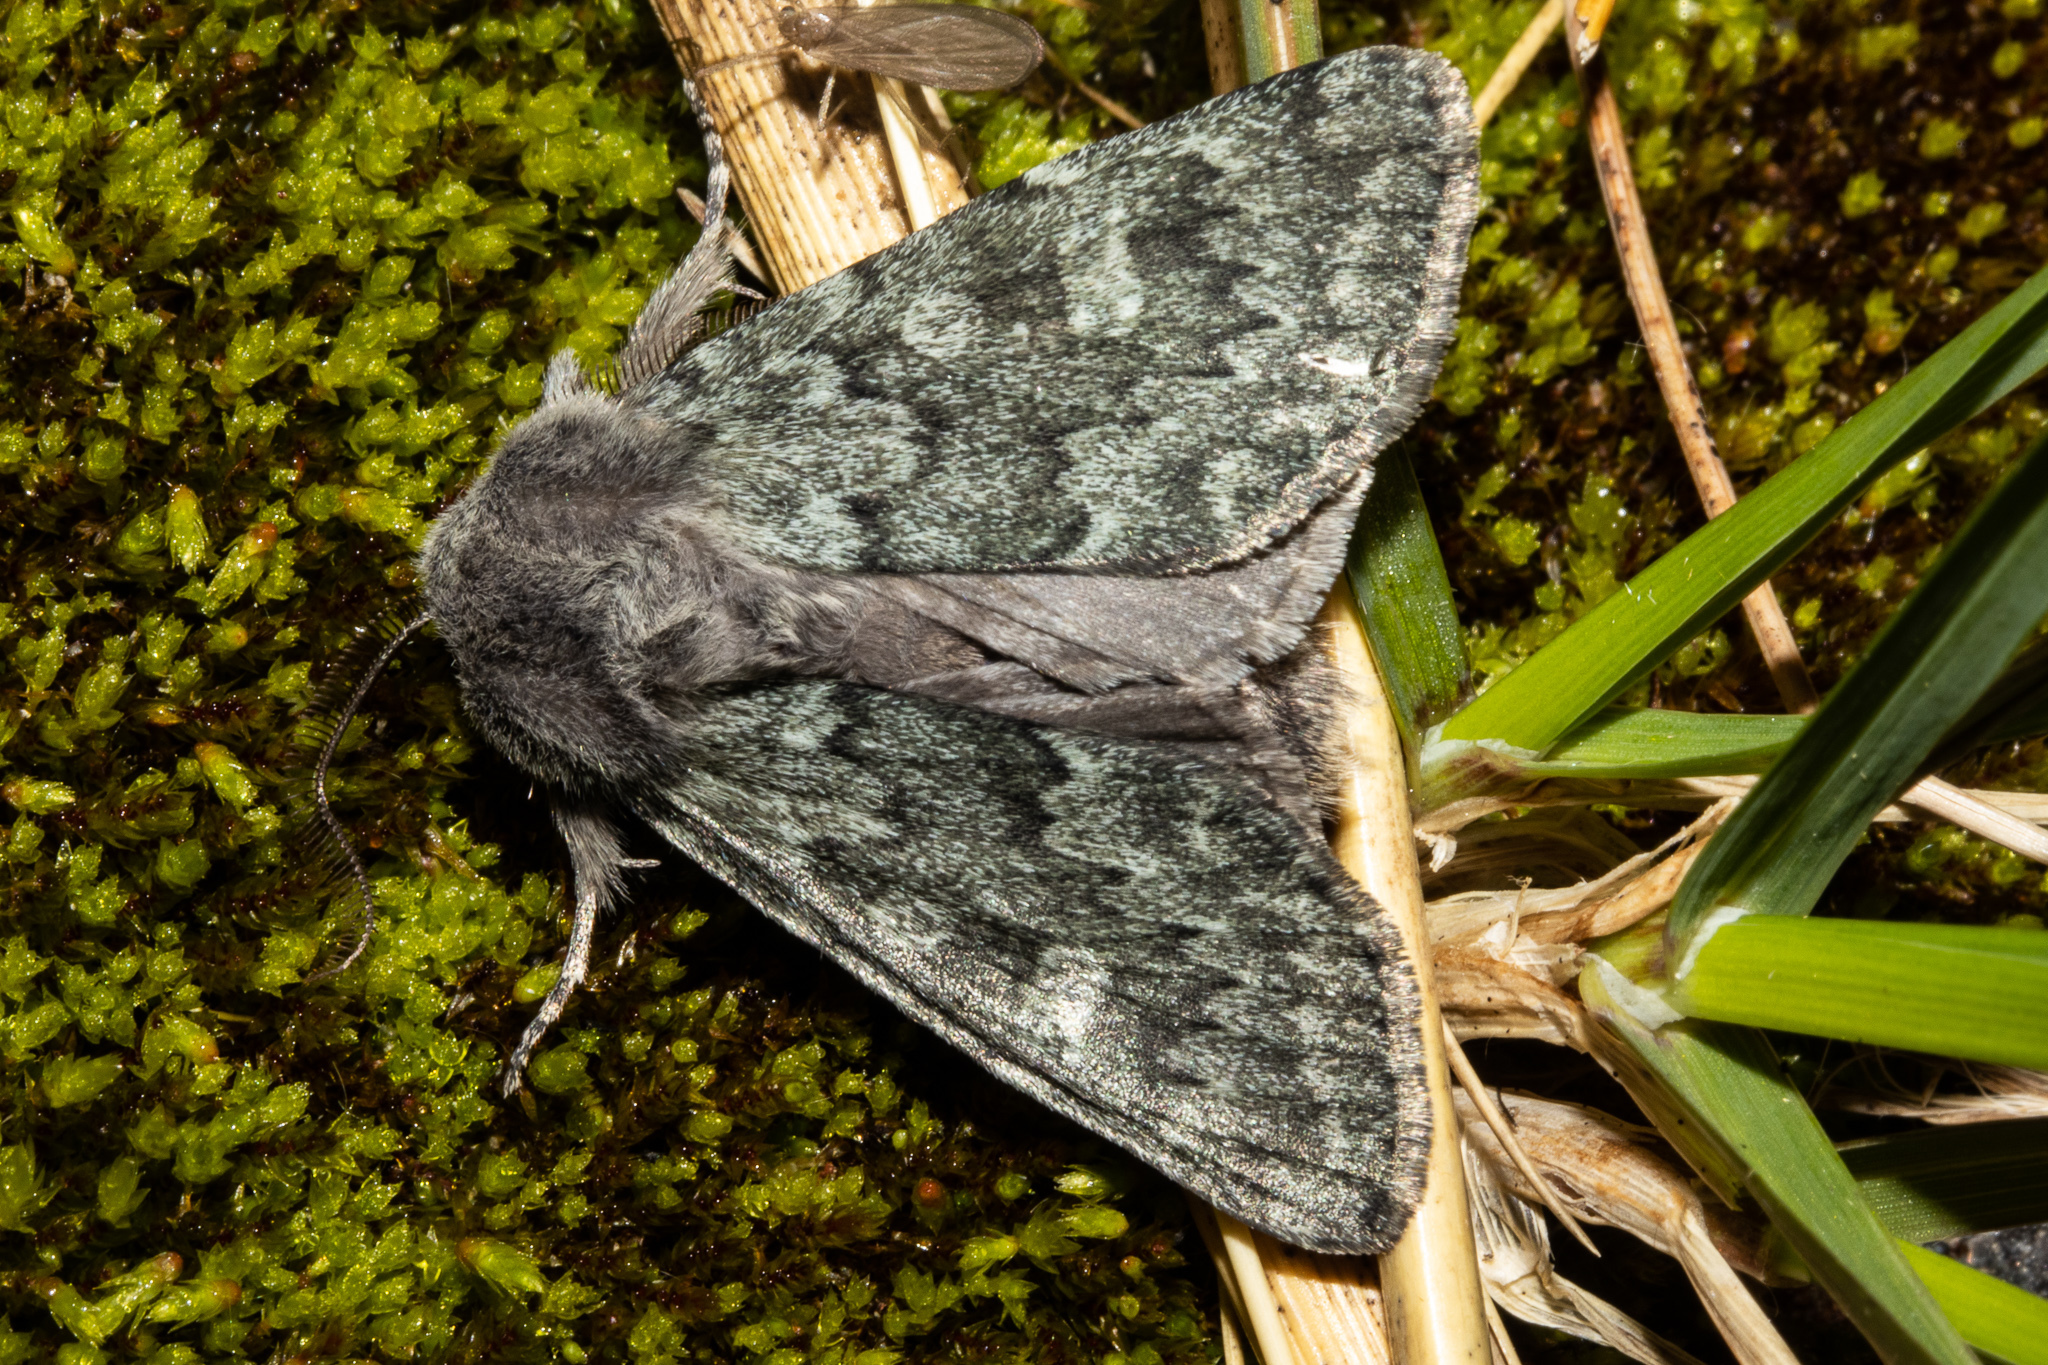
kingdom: Animalia
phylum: Arthropoda
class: Insecta
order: Lepidoptera
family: Noctuidae
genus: Ichneutica
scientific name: Ichneutica cana
